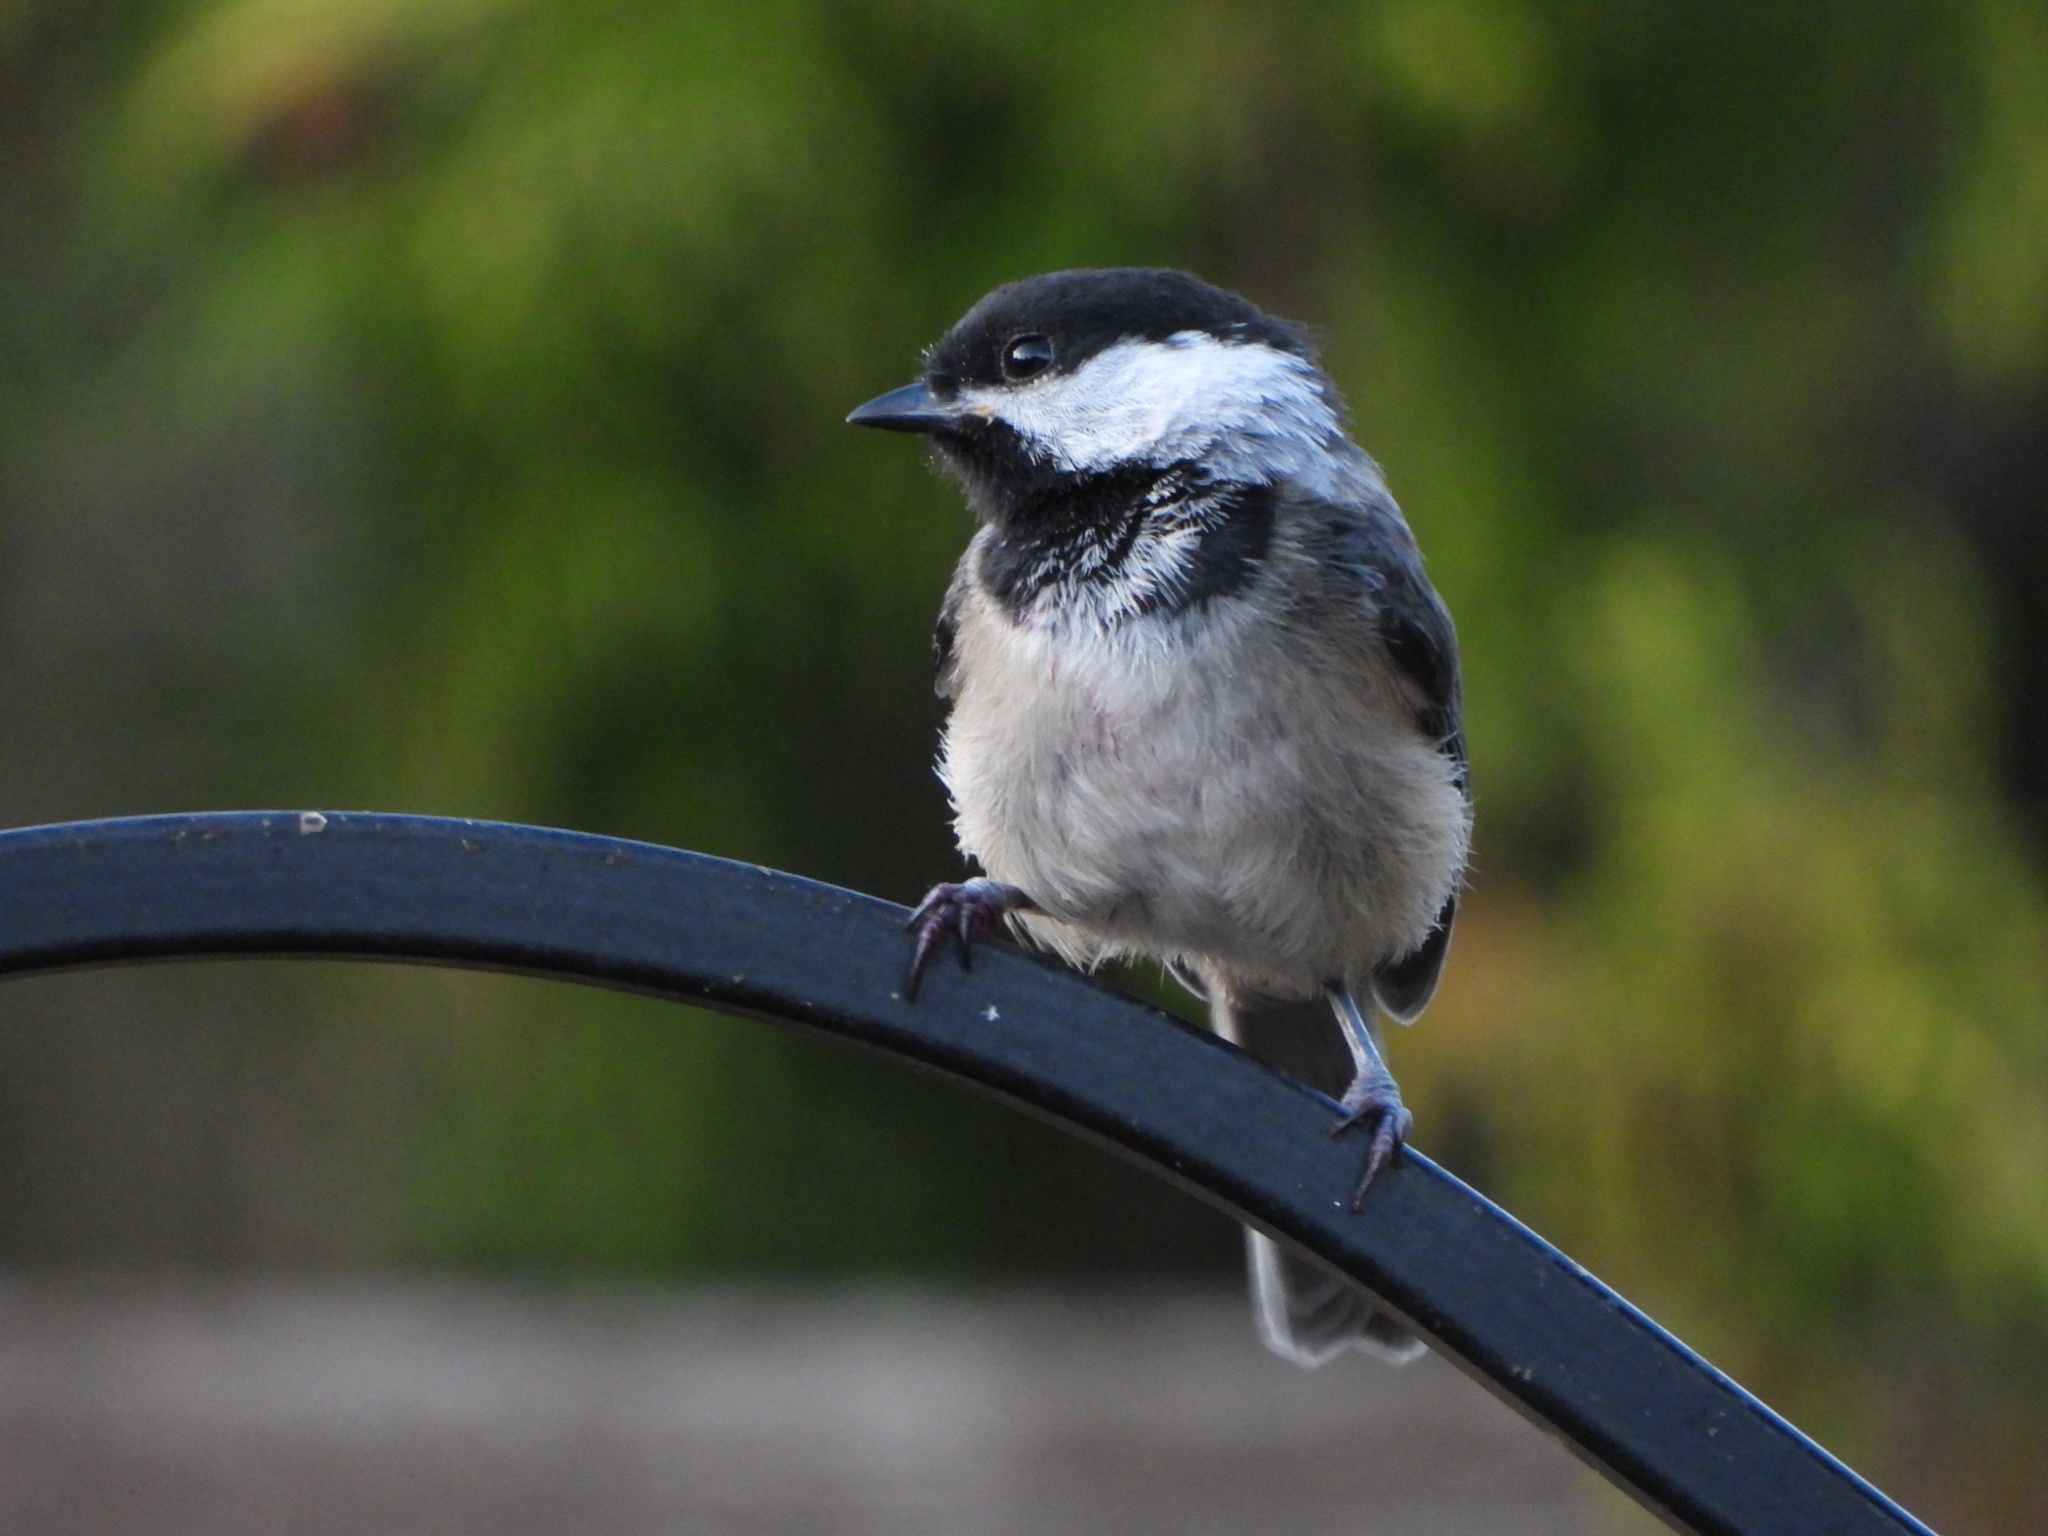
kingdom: Animalia
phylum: Chordata
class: Aves
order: Passeriformes
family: Paridae
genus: Poecile
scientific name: Poecile atricapillus
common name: Black-capped chickadee
